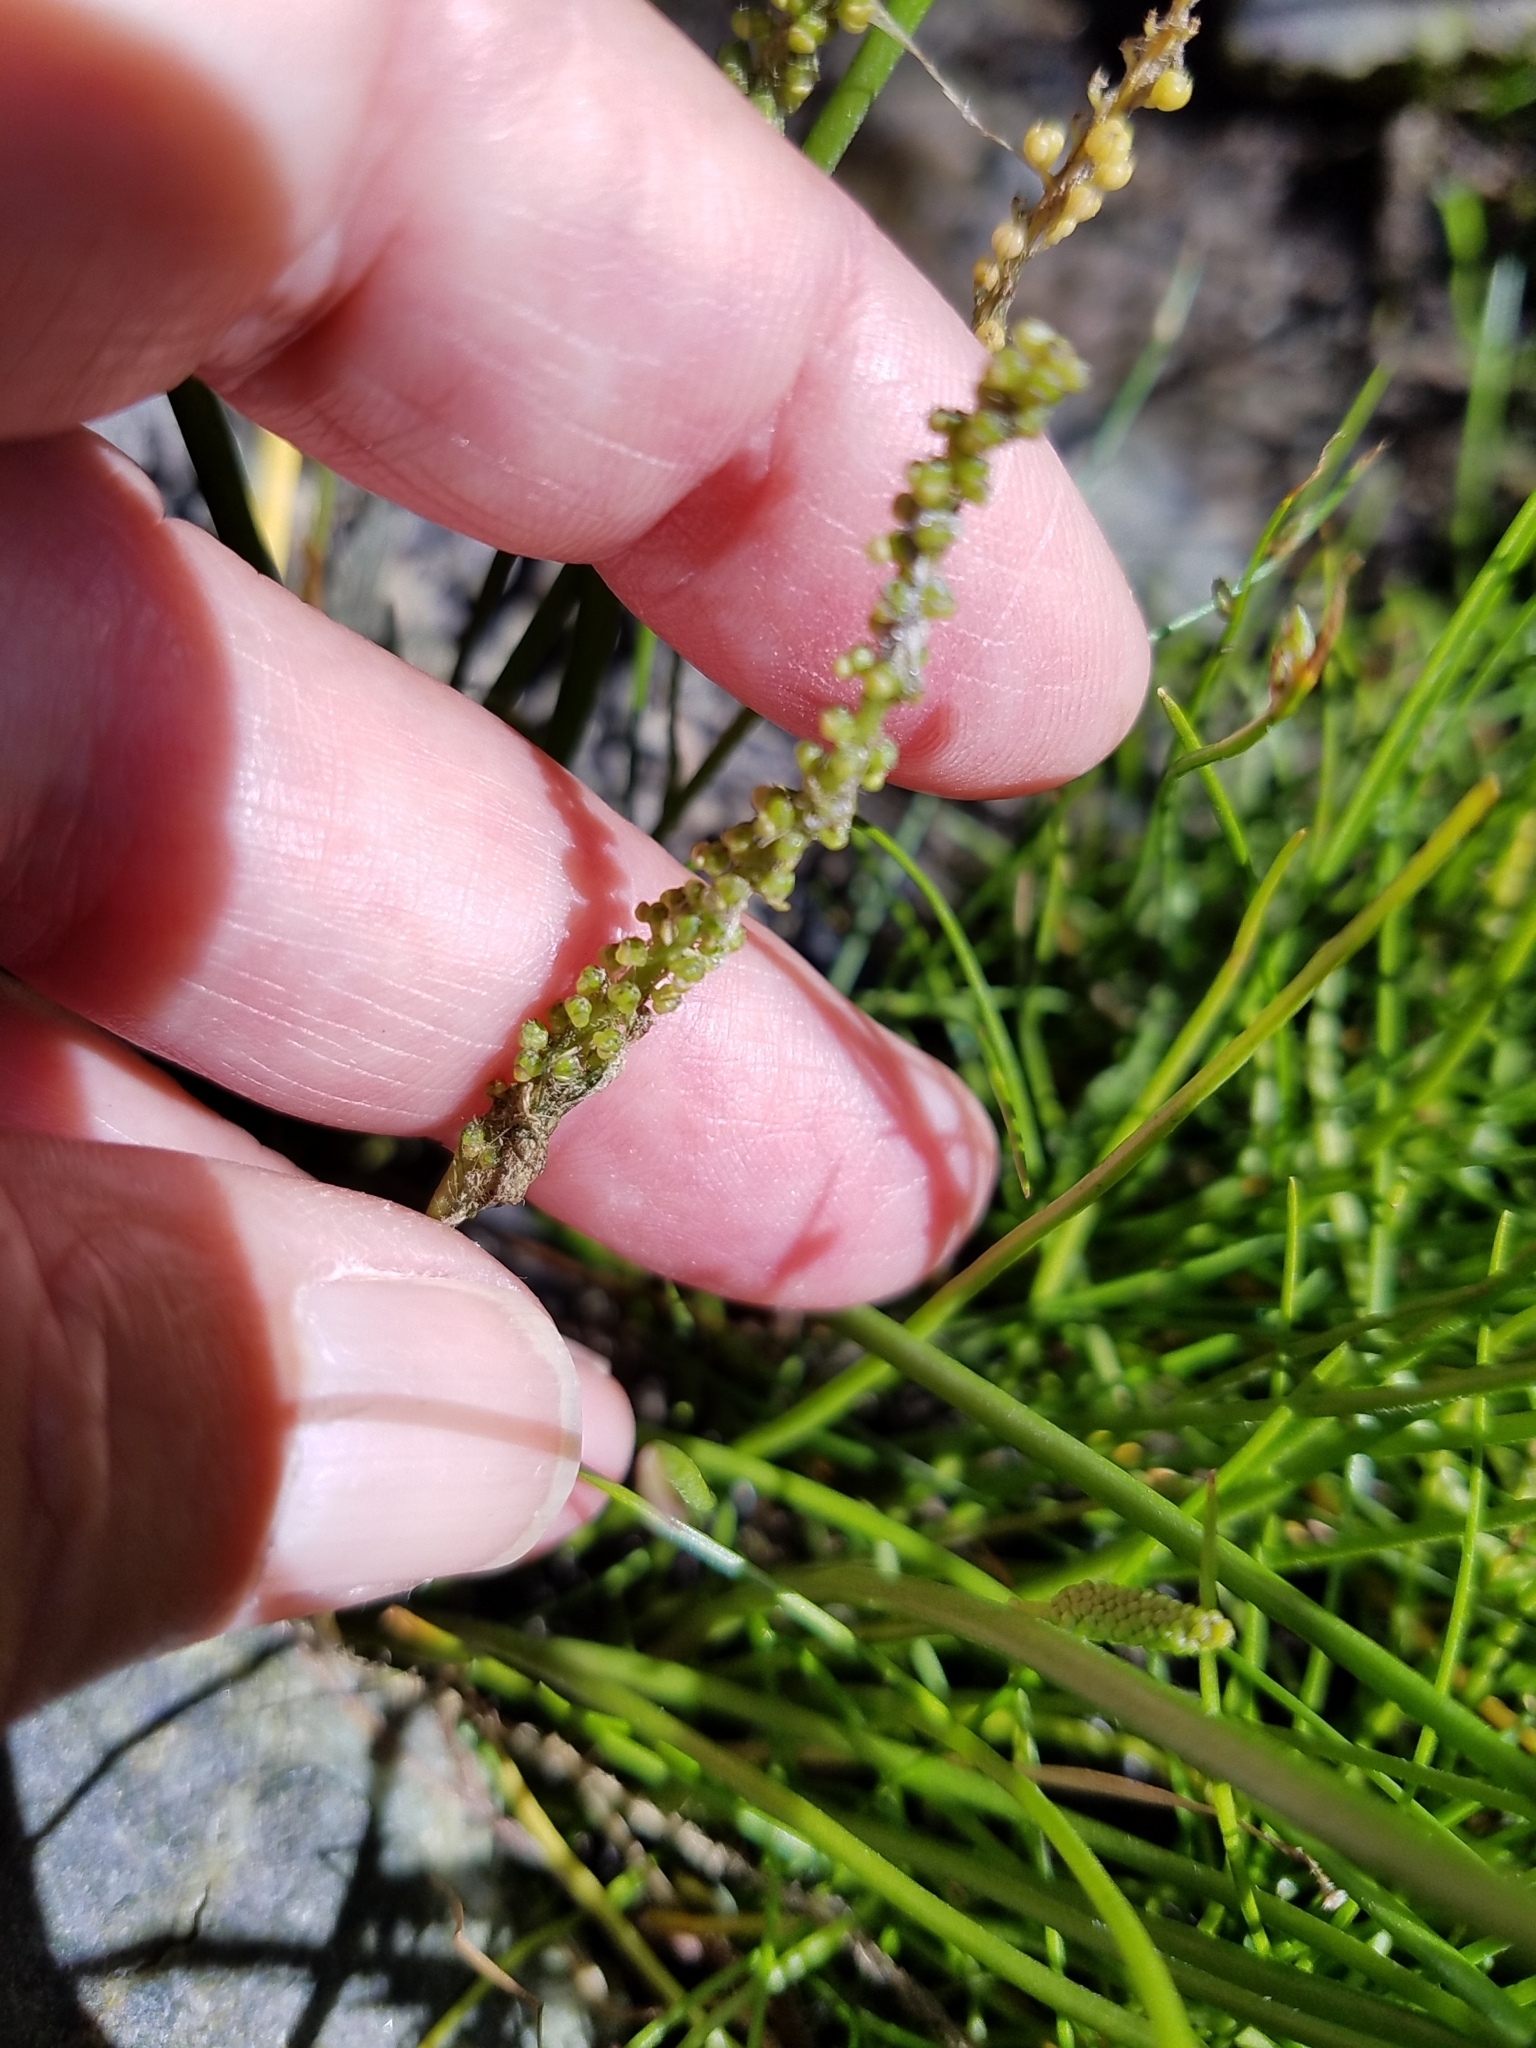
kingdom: Plantae
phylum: Tracheophyta
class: Liliopsida
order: Alismatales
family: Juncaginaceae
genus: Triglochin
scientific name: Triglochin striata
